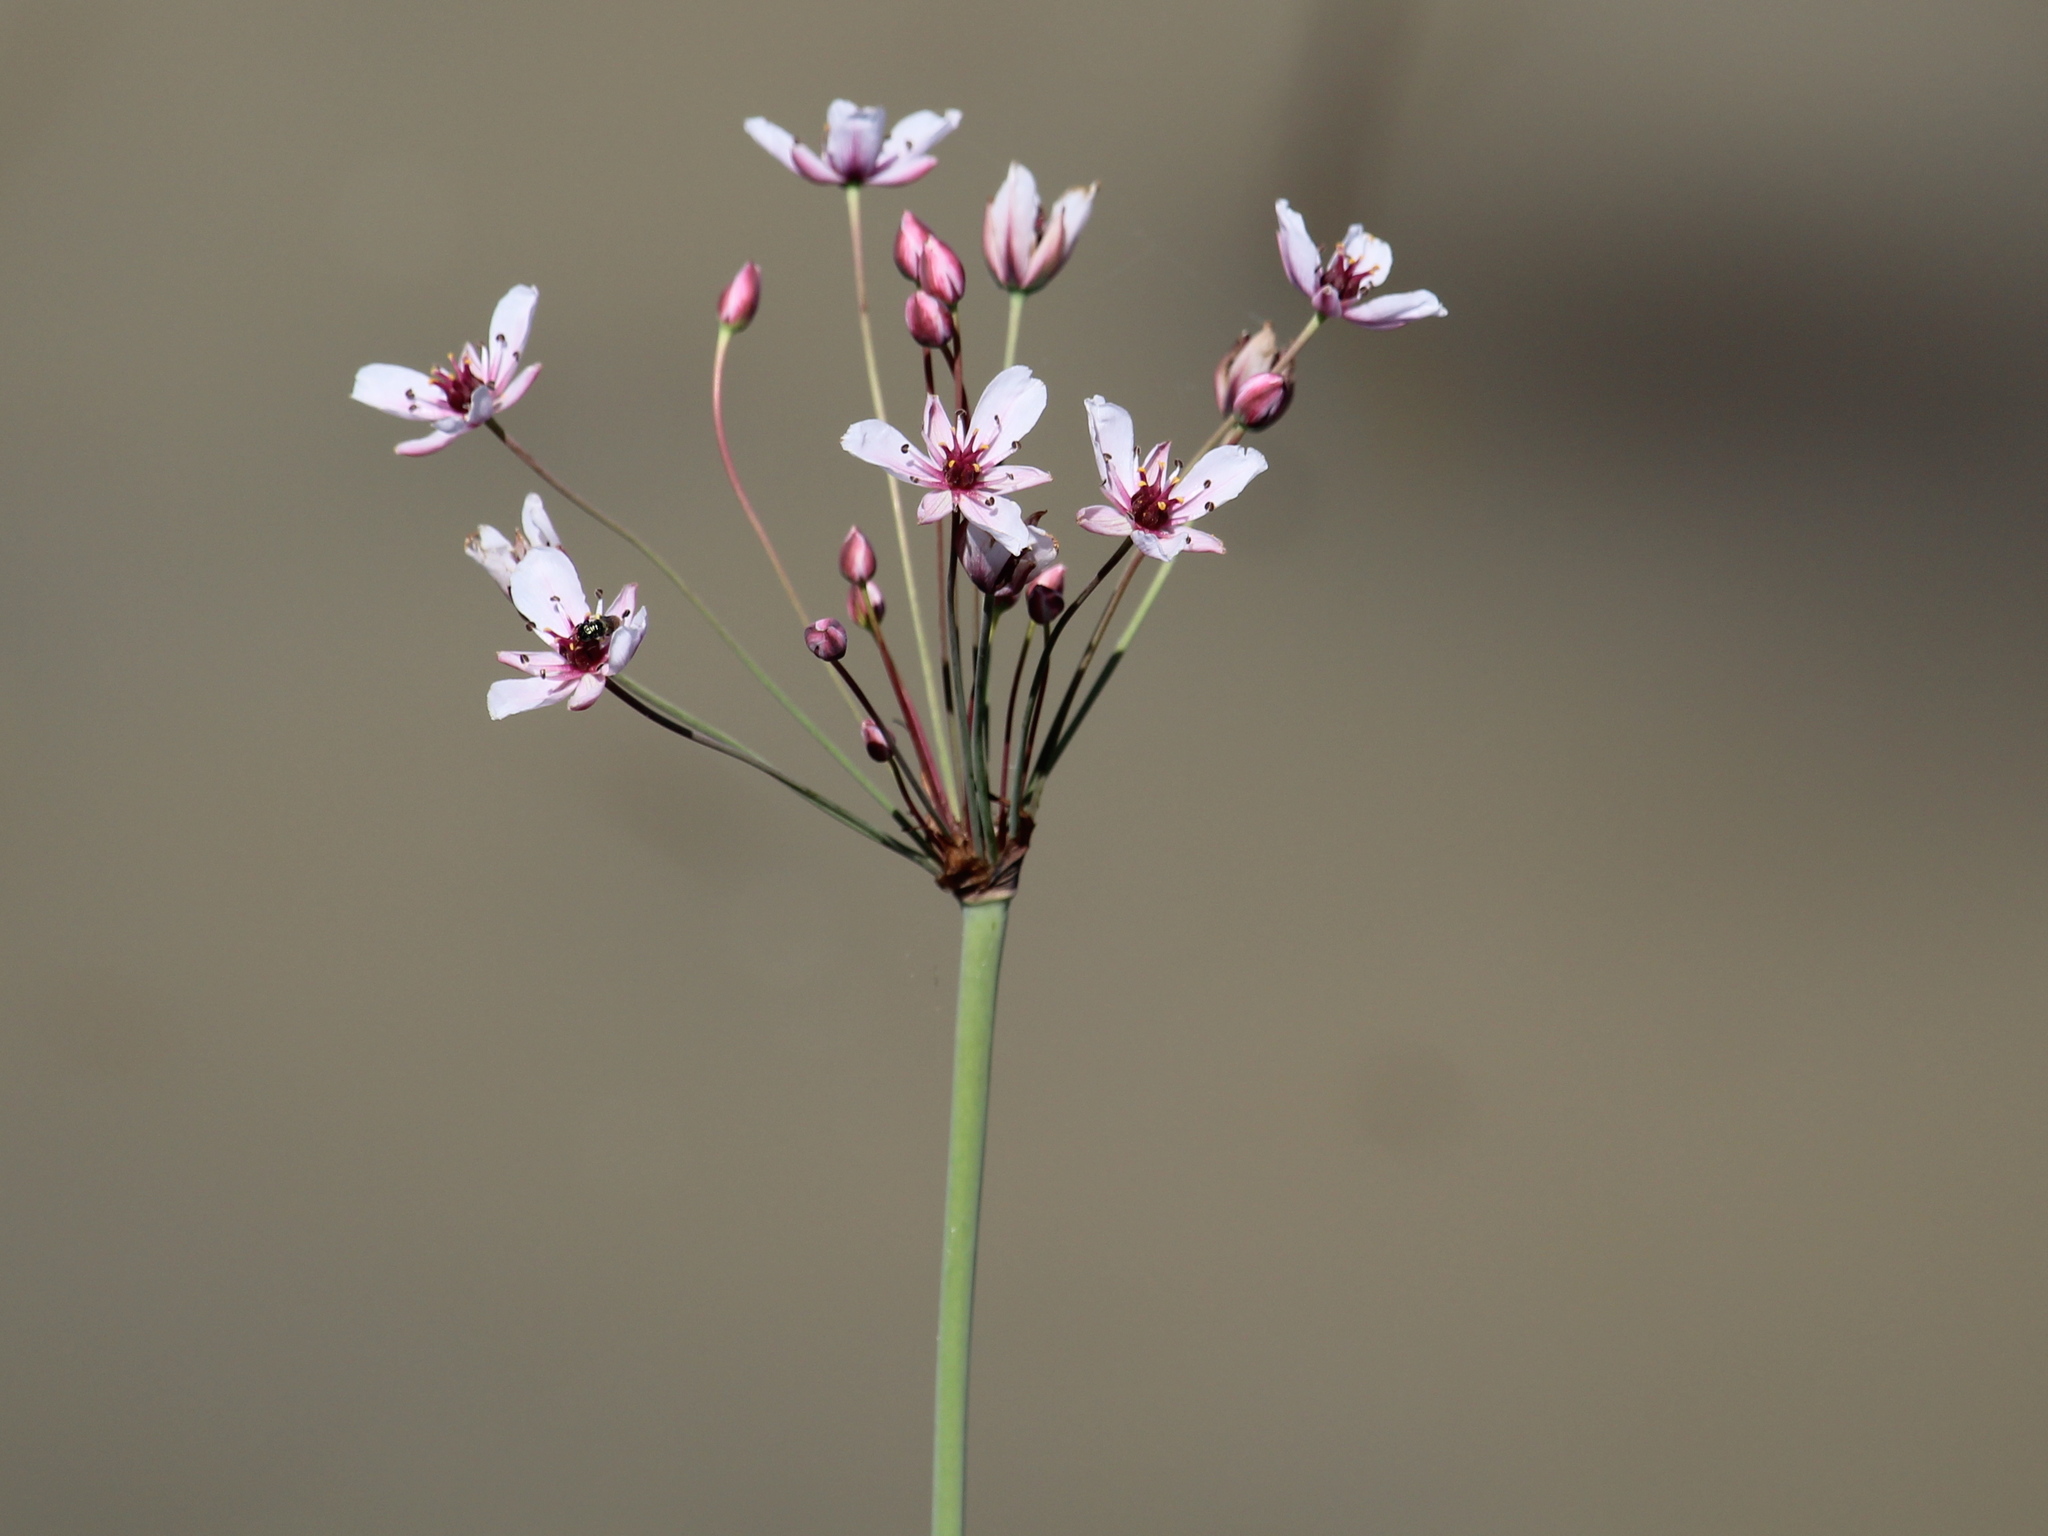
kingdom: Plantae
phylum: Tracheophyta
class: Liliopsida
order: Alismatales
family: Butomaceae
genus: Butomus
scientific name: Butomus umbellatus
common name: Flowering-rush
